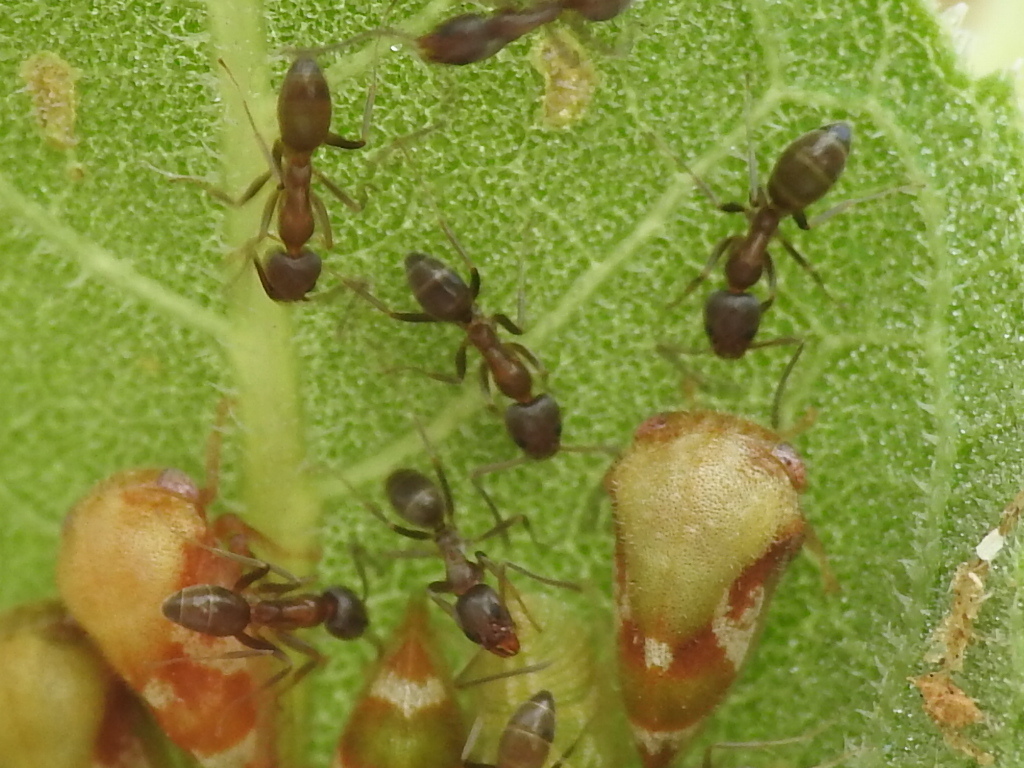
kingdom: Animalia
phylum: Arthropoda
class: Insecta
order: Hymenoptera
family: Formicidae
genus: Linepithema
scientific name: Linepithema humile
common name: Argentine ant
